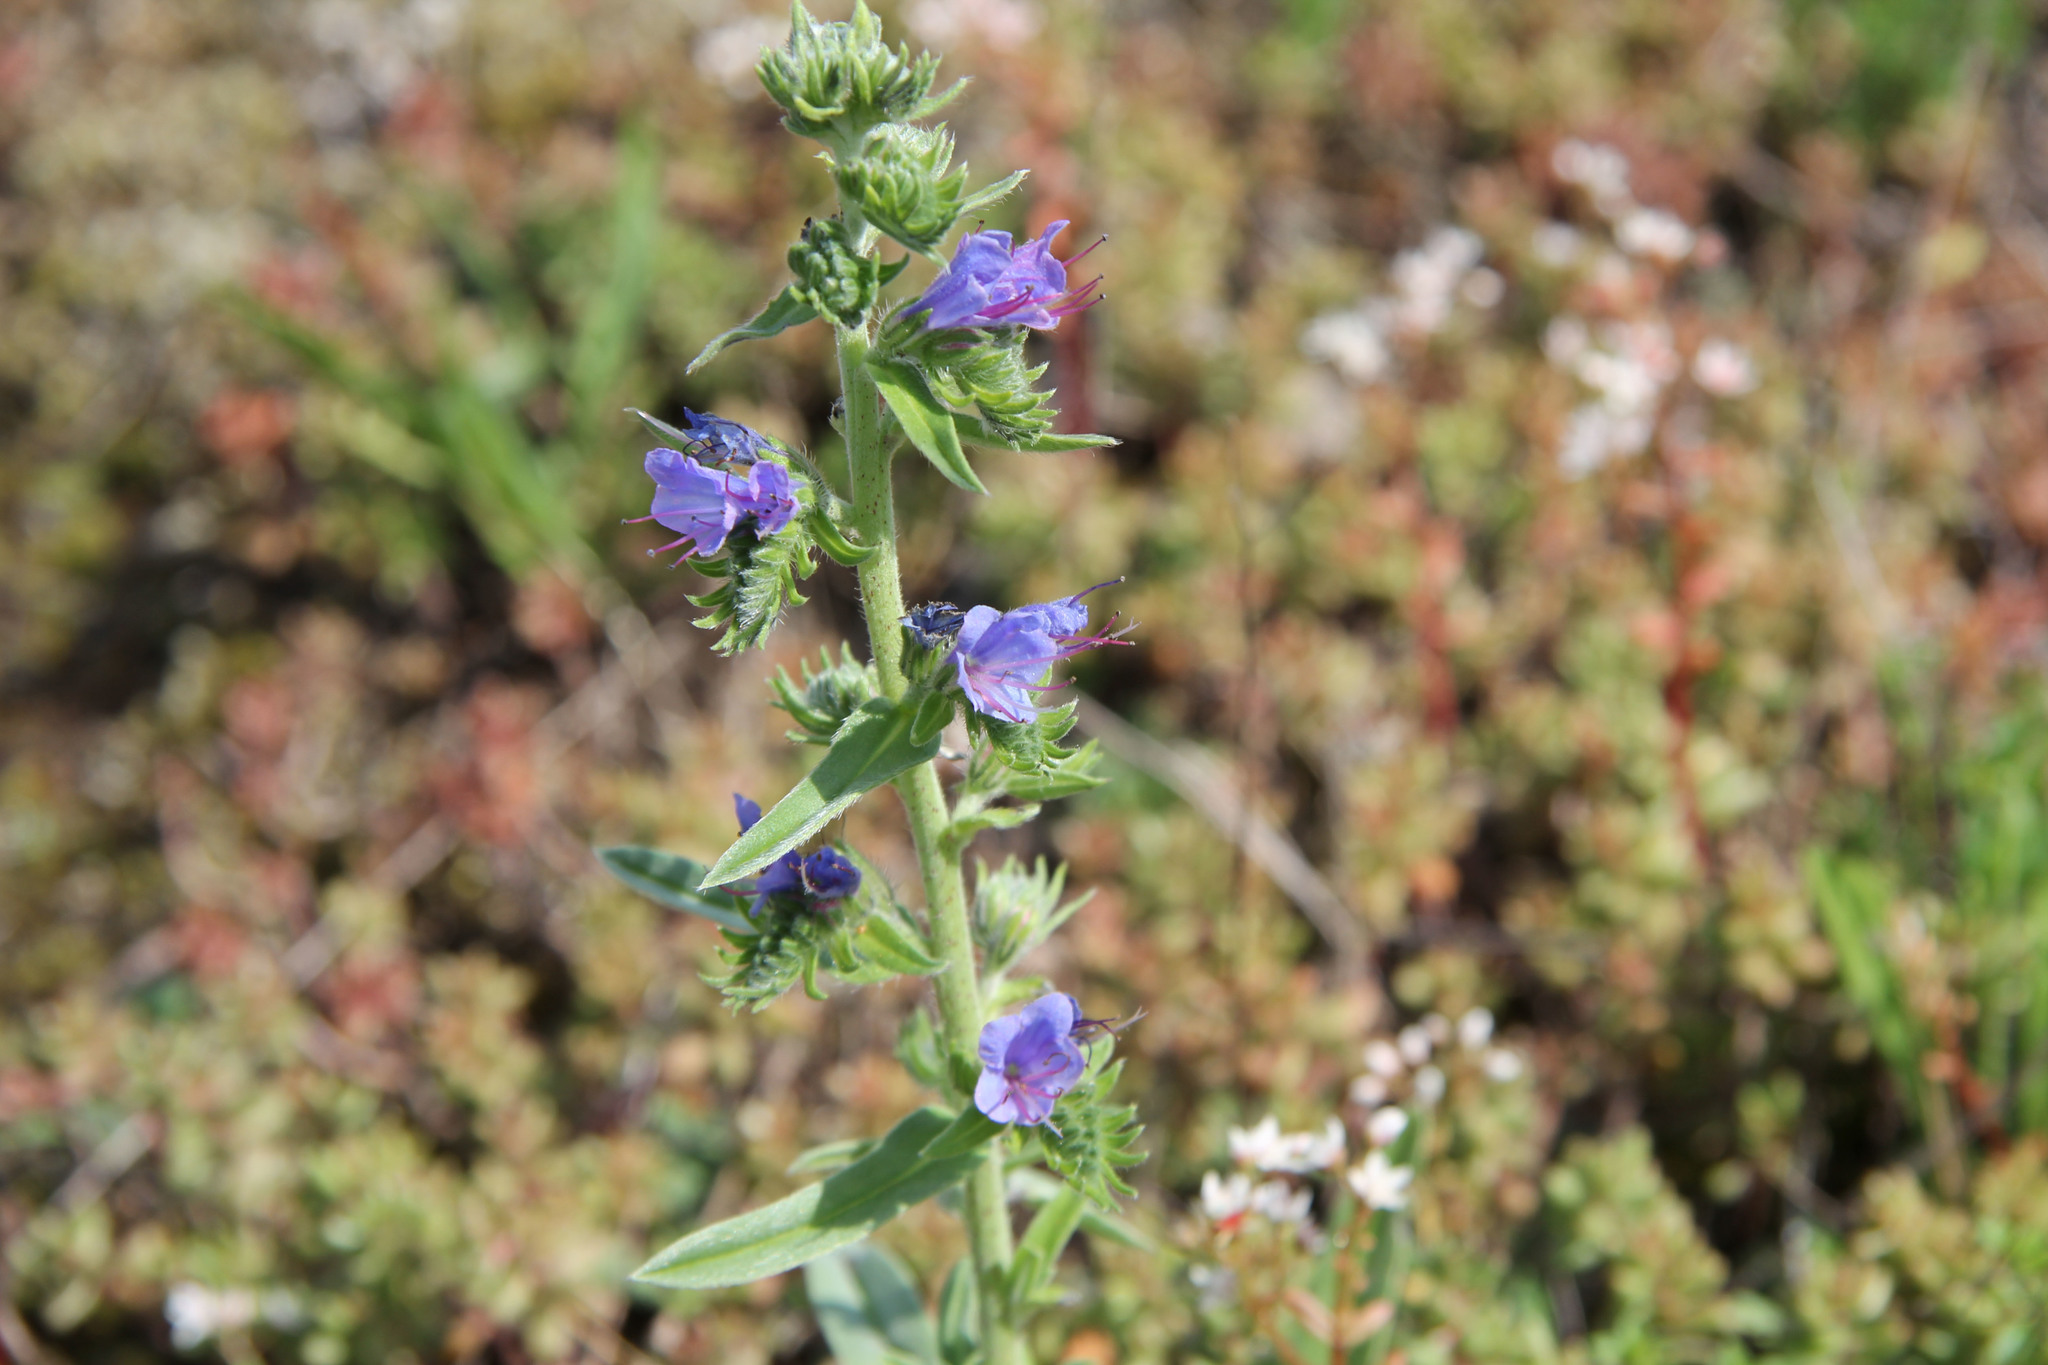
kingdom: Plantae
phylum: Tracheophyta
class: Magnoliopsida
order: Boraginales
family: Boraginaceae
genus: Echium
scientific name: Echium vulgare
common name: Common viper's bugloss
